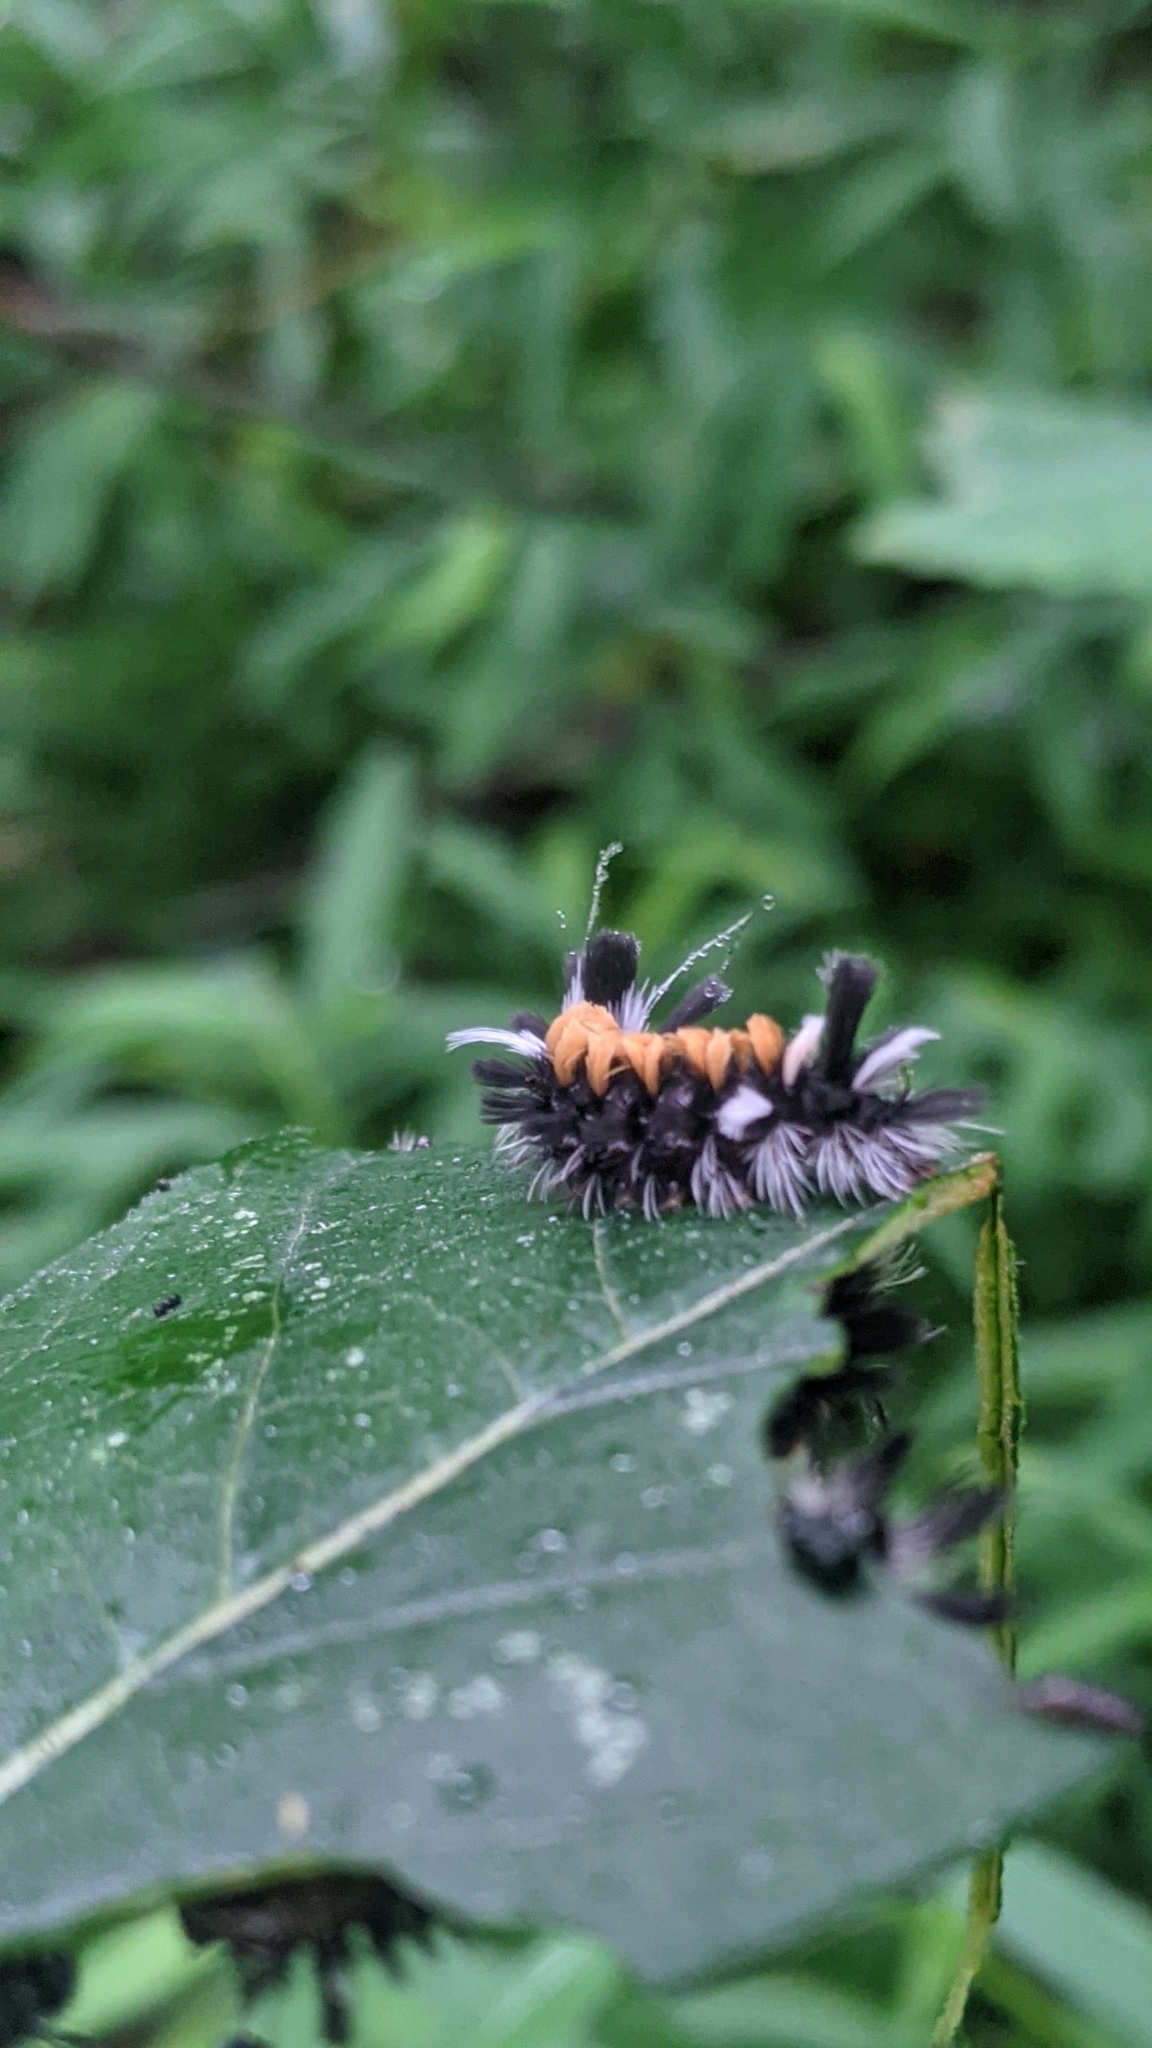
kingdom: Animalia
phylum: Arthropoda
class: Insecta
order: Lepidoptera
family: Erebidae
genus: Euchaetes
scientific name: Euchaetes egle
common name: Milkweed tussock moth
